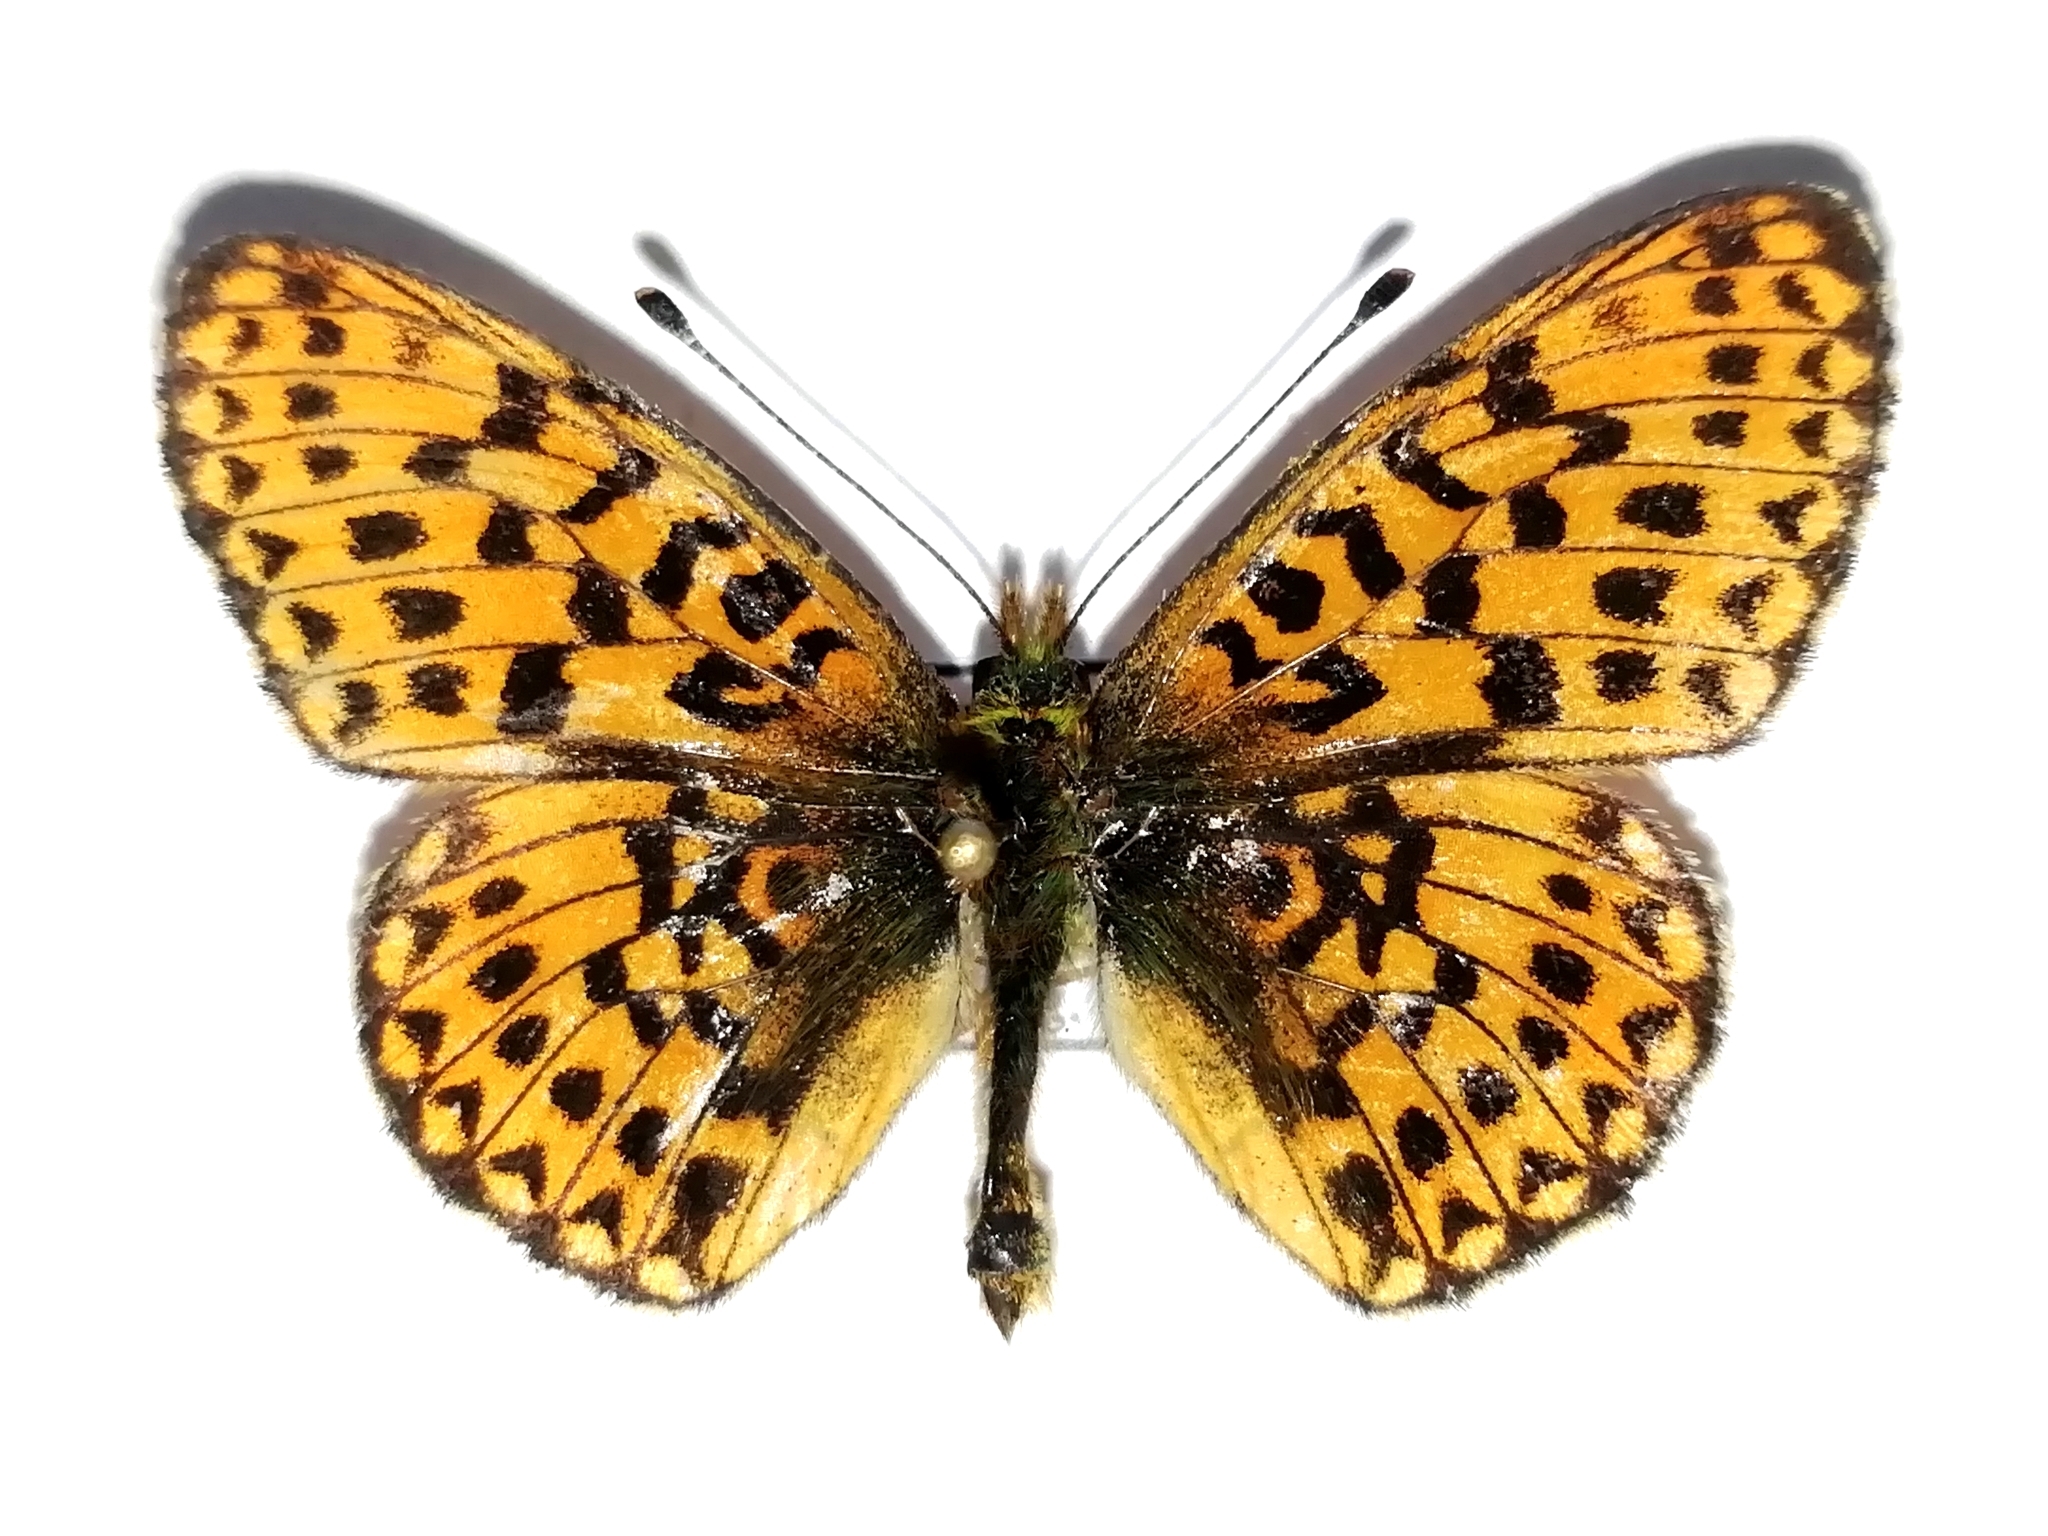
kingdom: Animalia
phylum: Arthropoda
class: Insecta
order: Lepidoptera
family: Nymphalidae
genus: Clossiana
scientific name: Clossiana euphrosyne
